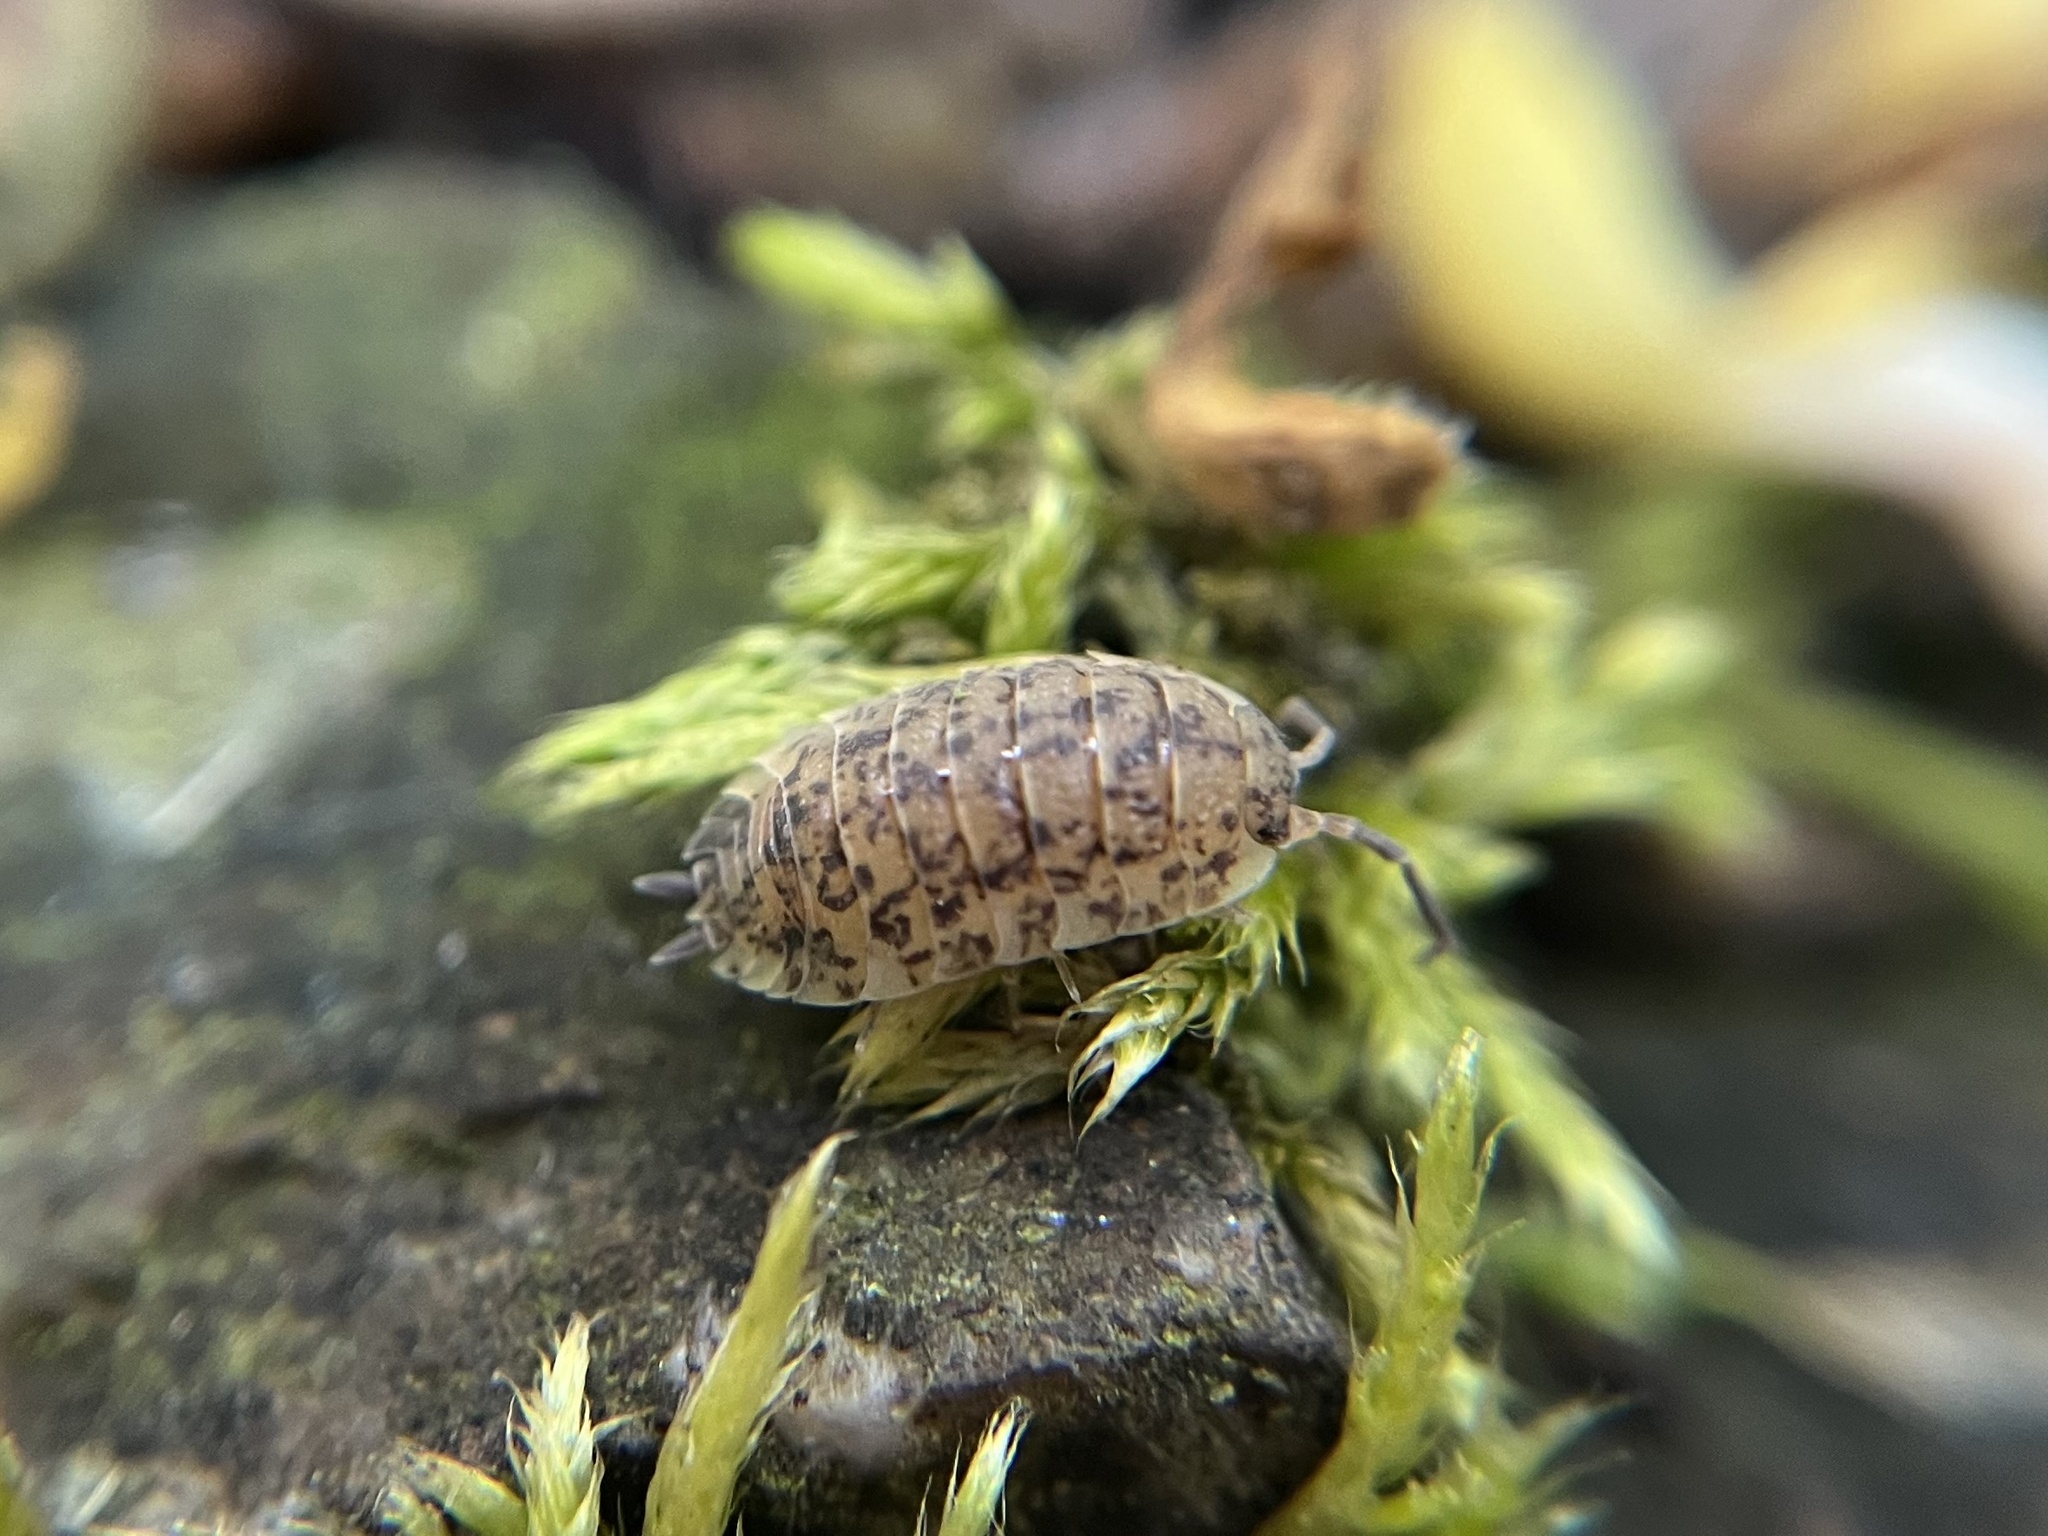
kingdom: Animalia
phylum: Arthropoda
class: Malacostraca
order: Isopoda
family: Porcellionidae
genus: Porcellio
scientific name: Porcellio scaber
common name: Common rough woodlouse
